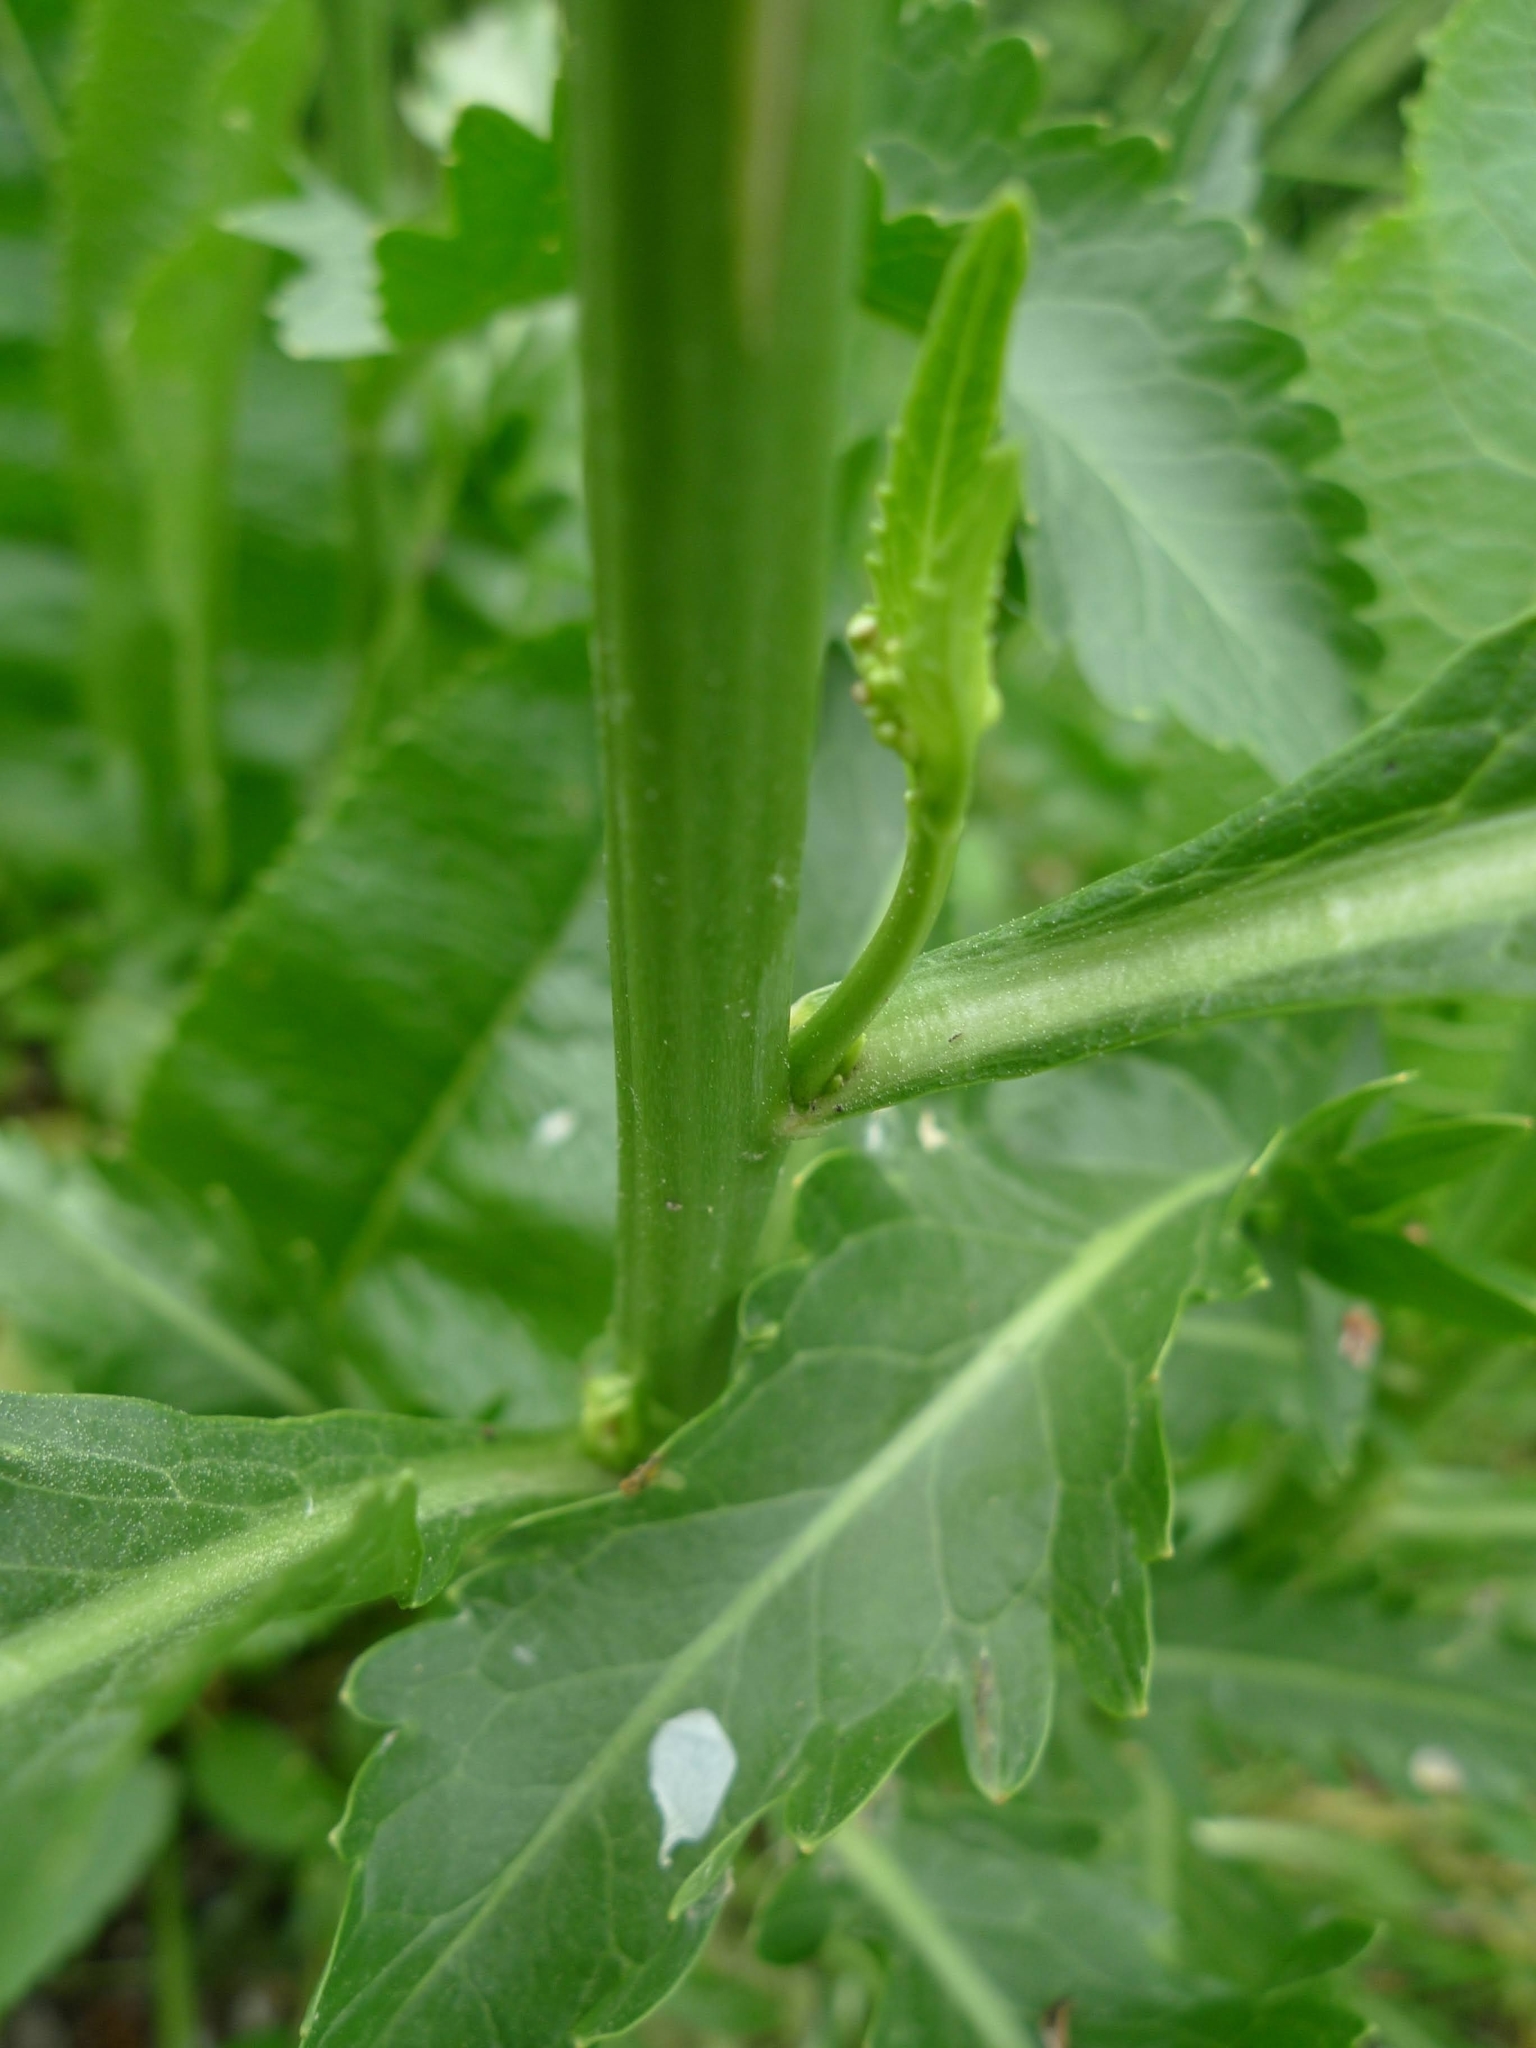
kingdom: Plantae
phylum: Tracheophyta
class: Magnoliopsida
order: Brassicales
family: Brassicaceae
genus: Armoracia
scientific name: Armoracia rusticana
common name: Horseradish
